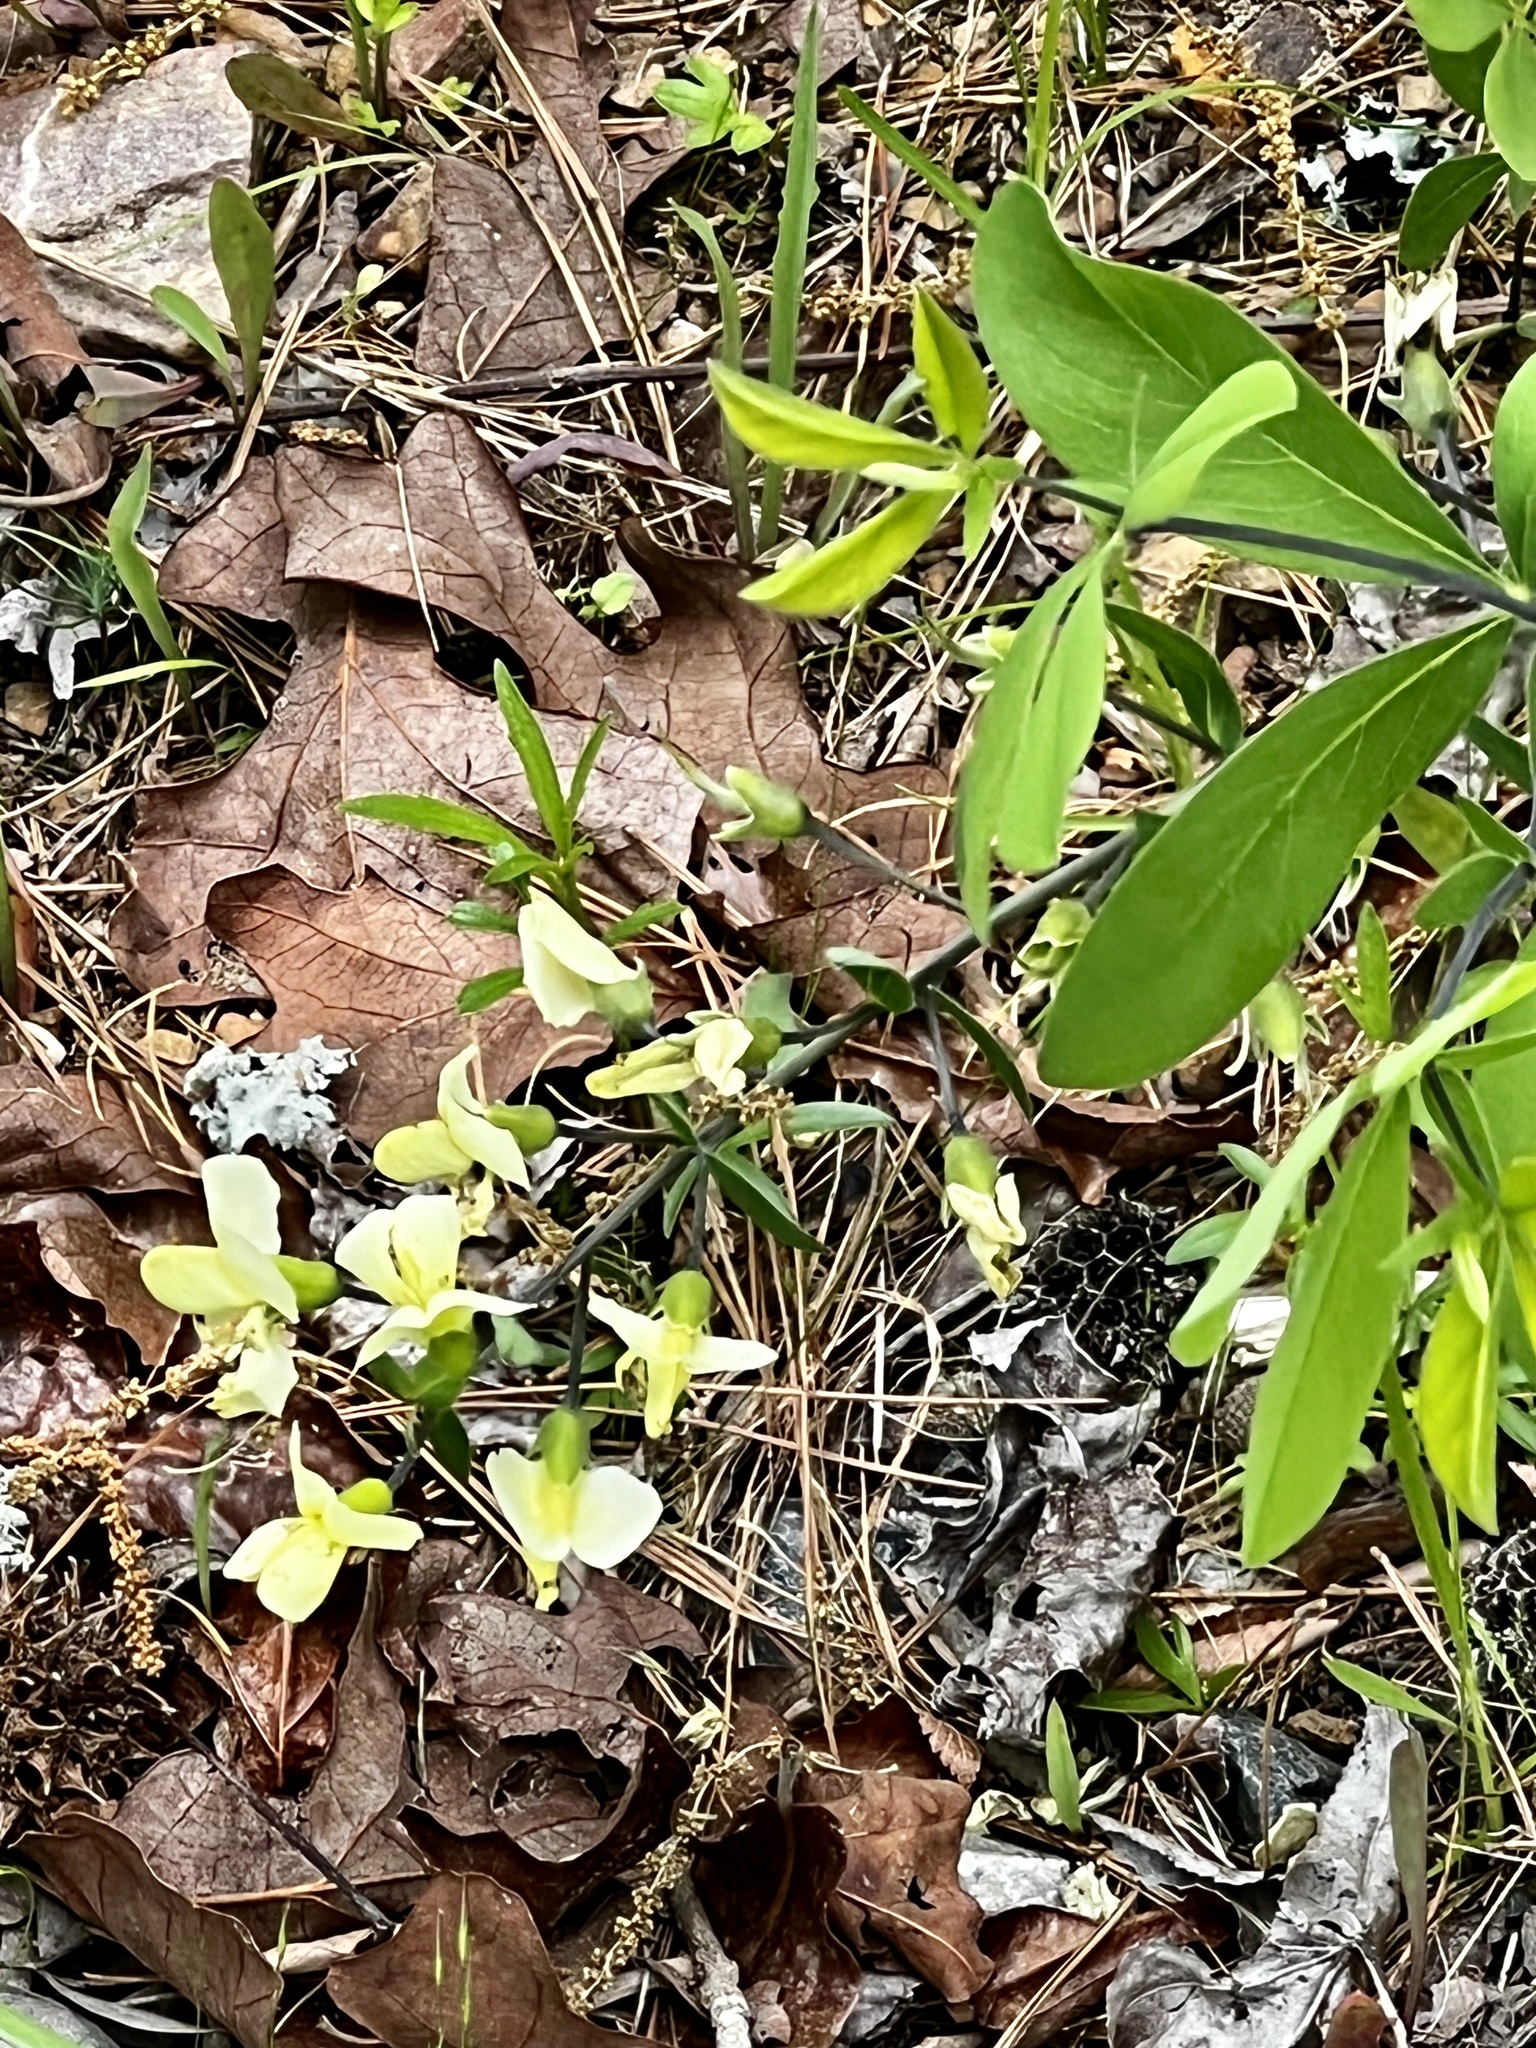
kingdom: Plantae
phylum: Tracheophyta
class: Magnoliopsida
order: Fabales
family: Fabaceae
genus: Baptisia
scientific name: Baptisia bracteata
